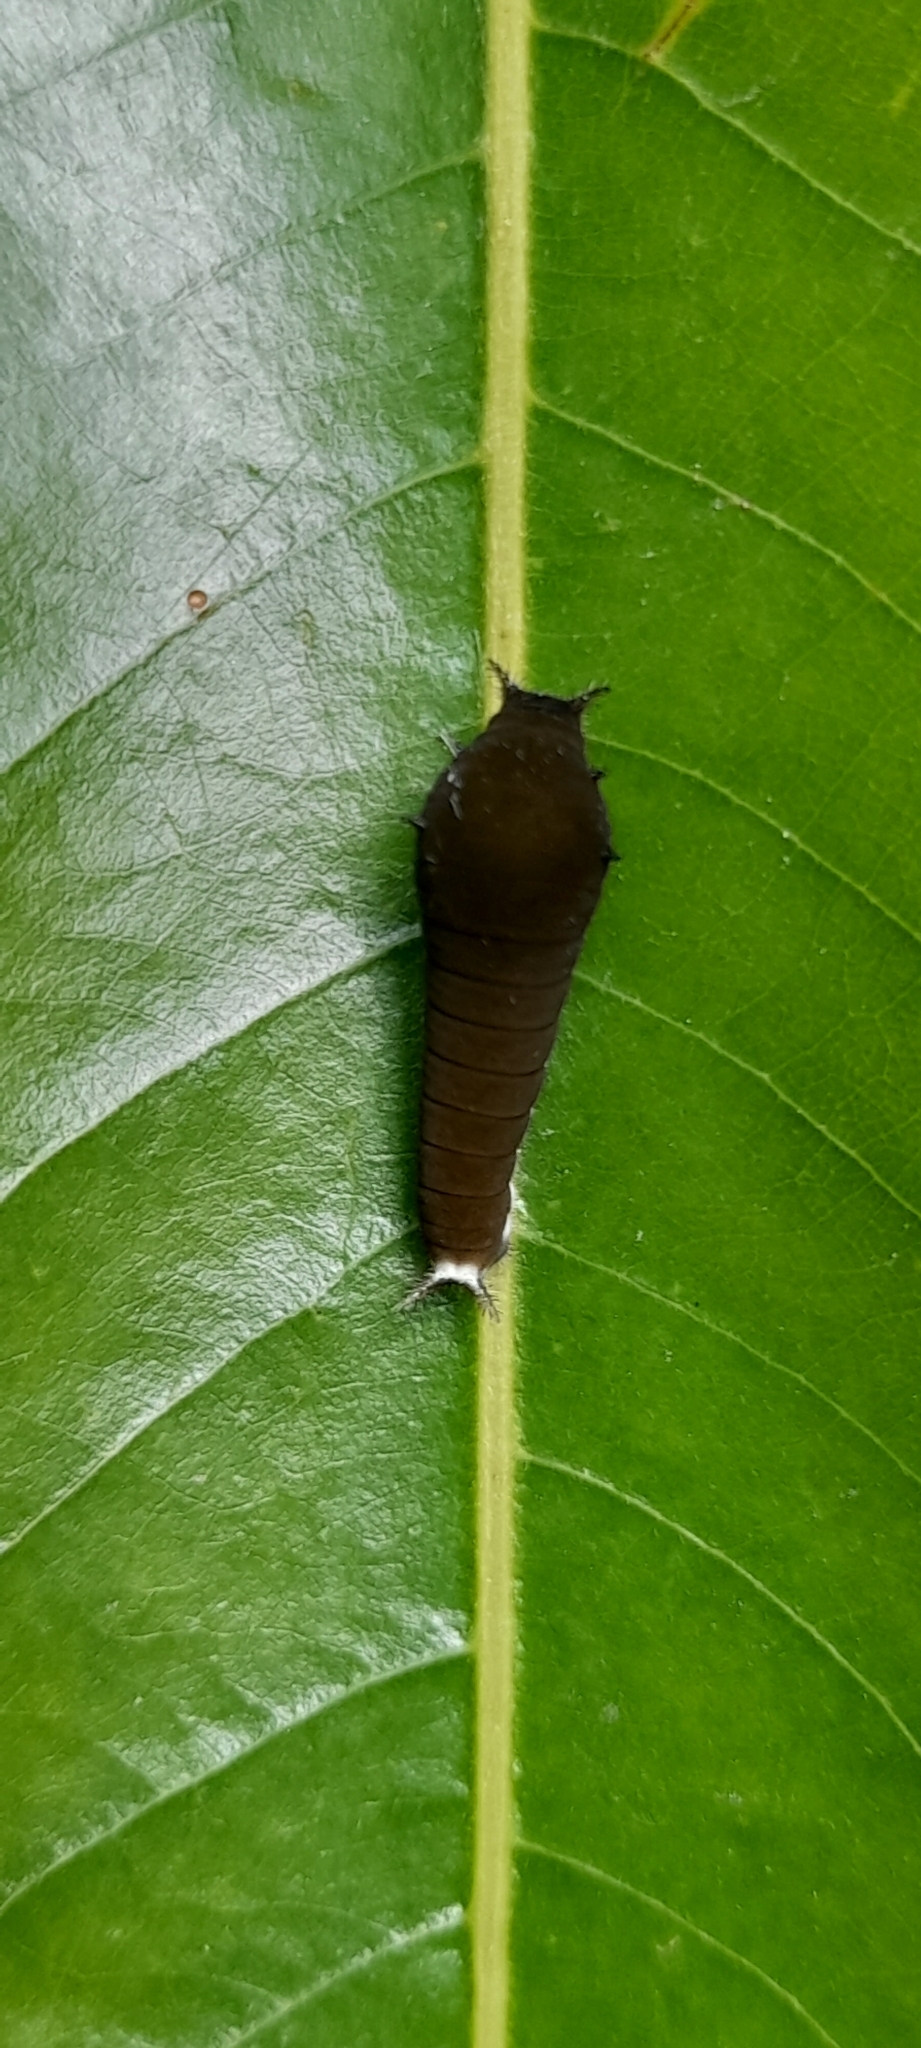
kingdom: Animalia
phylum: Arthropoda
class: Insecta
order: Lepidoptera
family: Papilionidae
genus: Graphium
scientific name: Graphium doson
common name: Common jay
